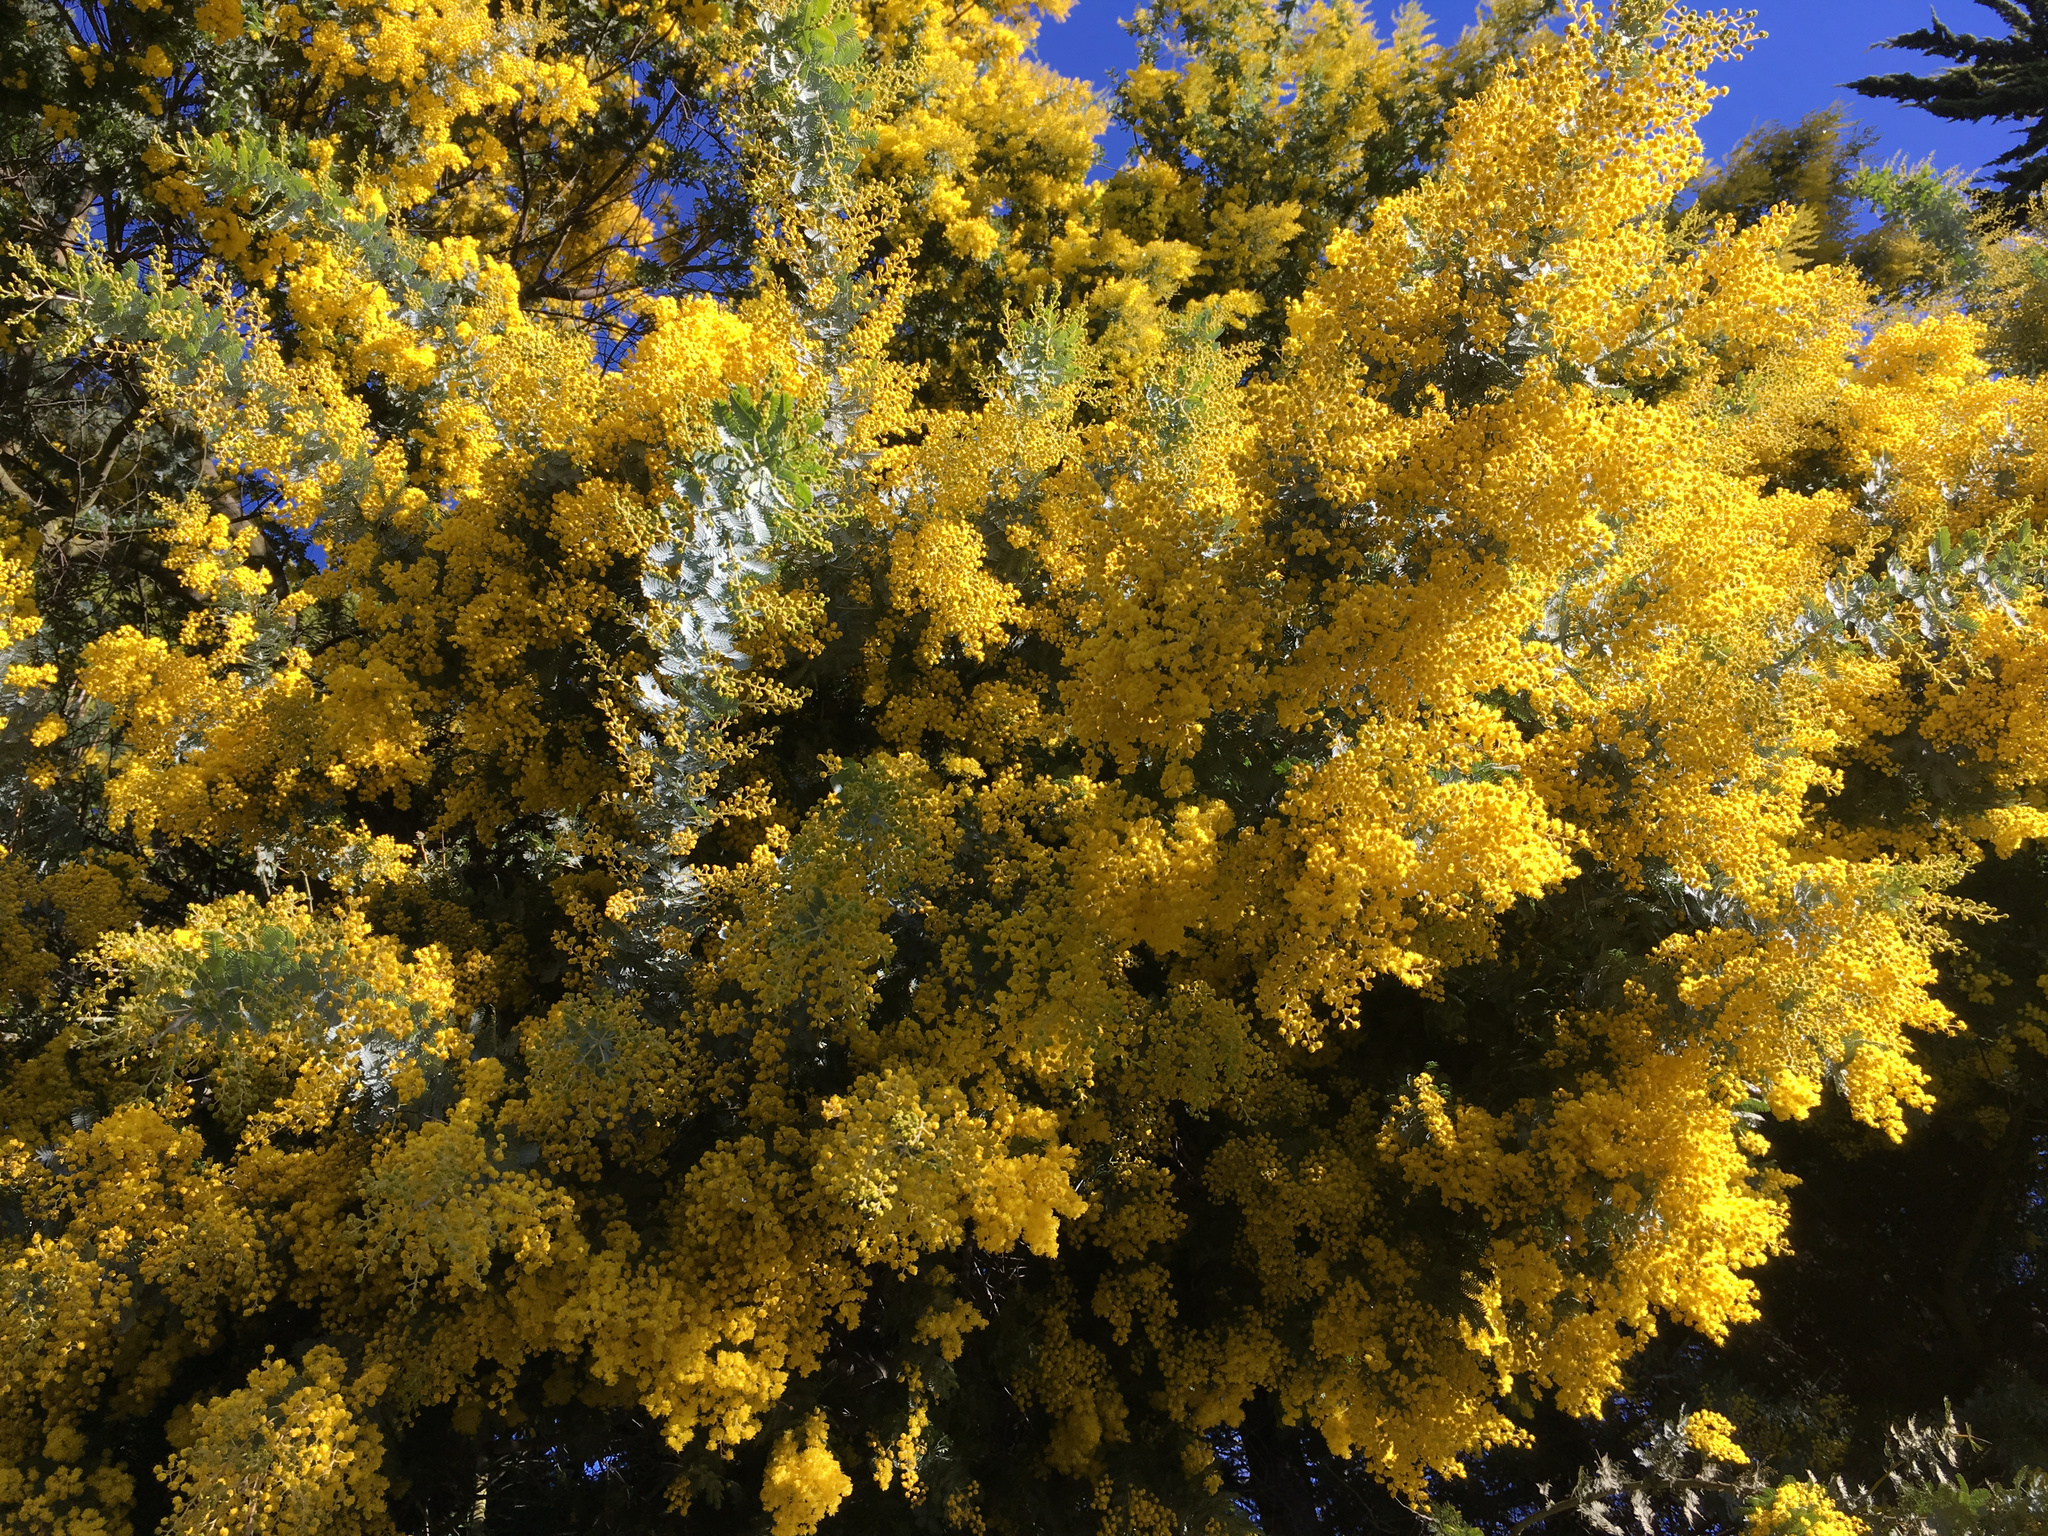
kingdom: Plantae
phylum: Tracheophyta
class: Magnoliopsida
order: Fabales
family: Fabaceae
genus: Acacia
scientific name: Acacia baileyana
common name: Cootamundra wattle
